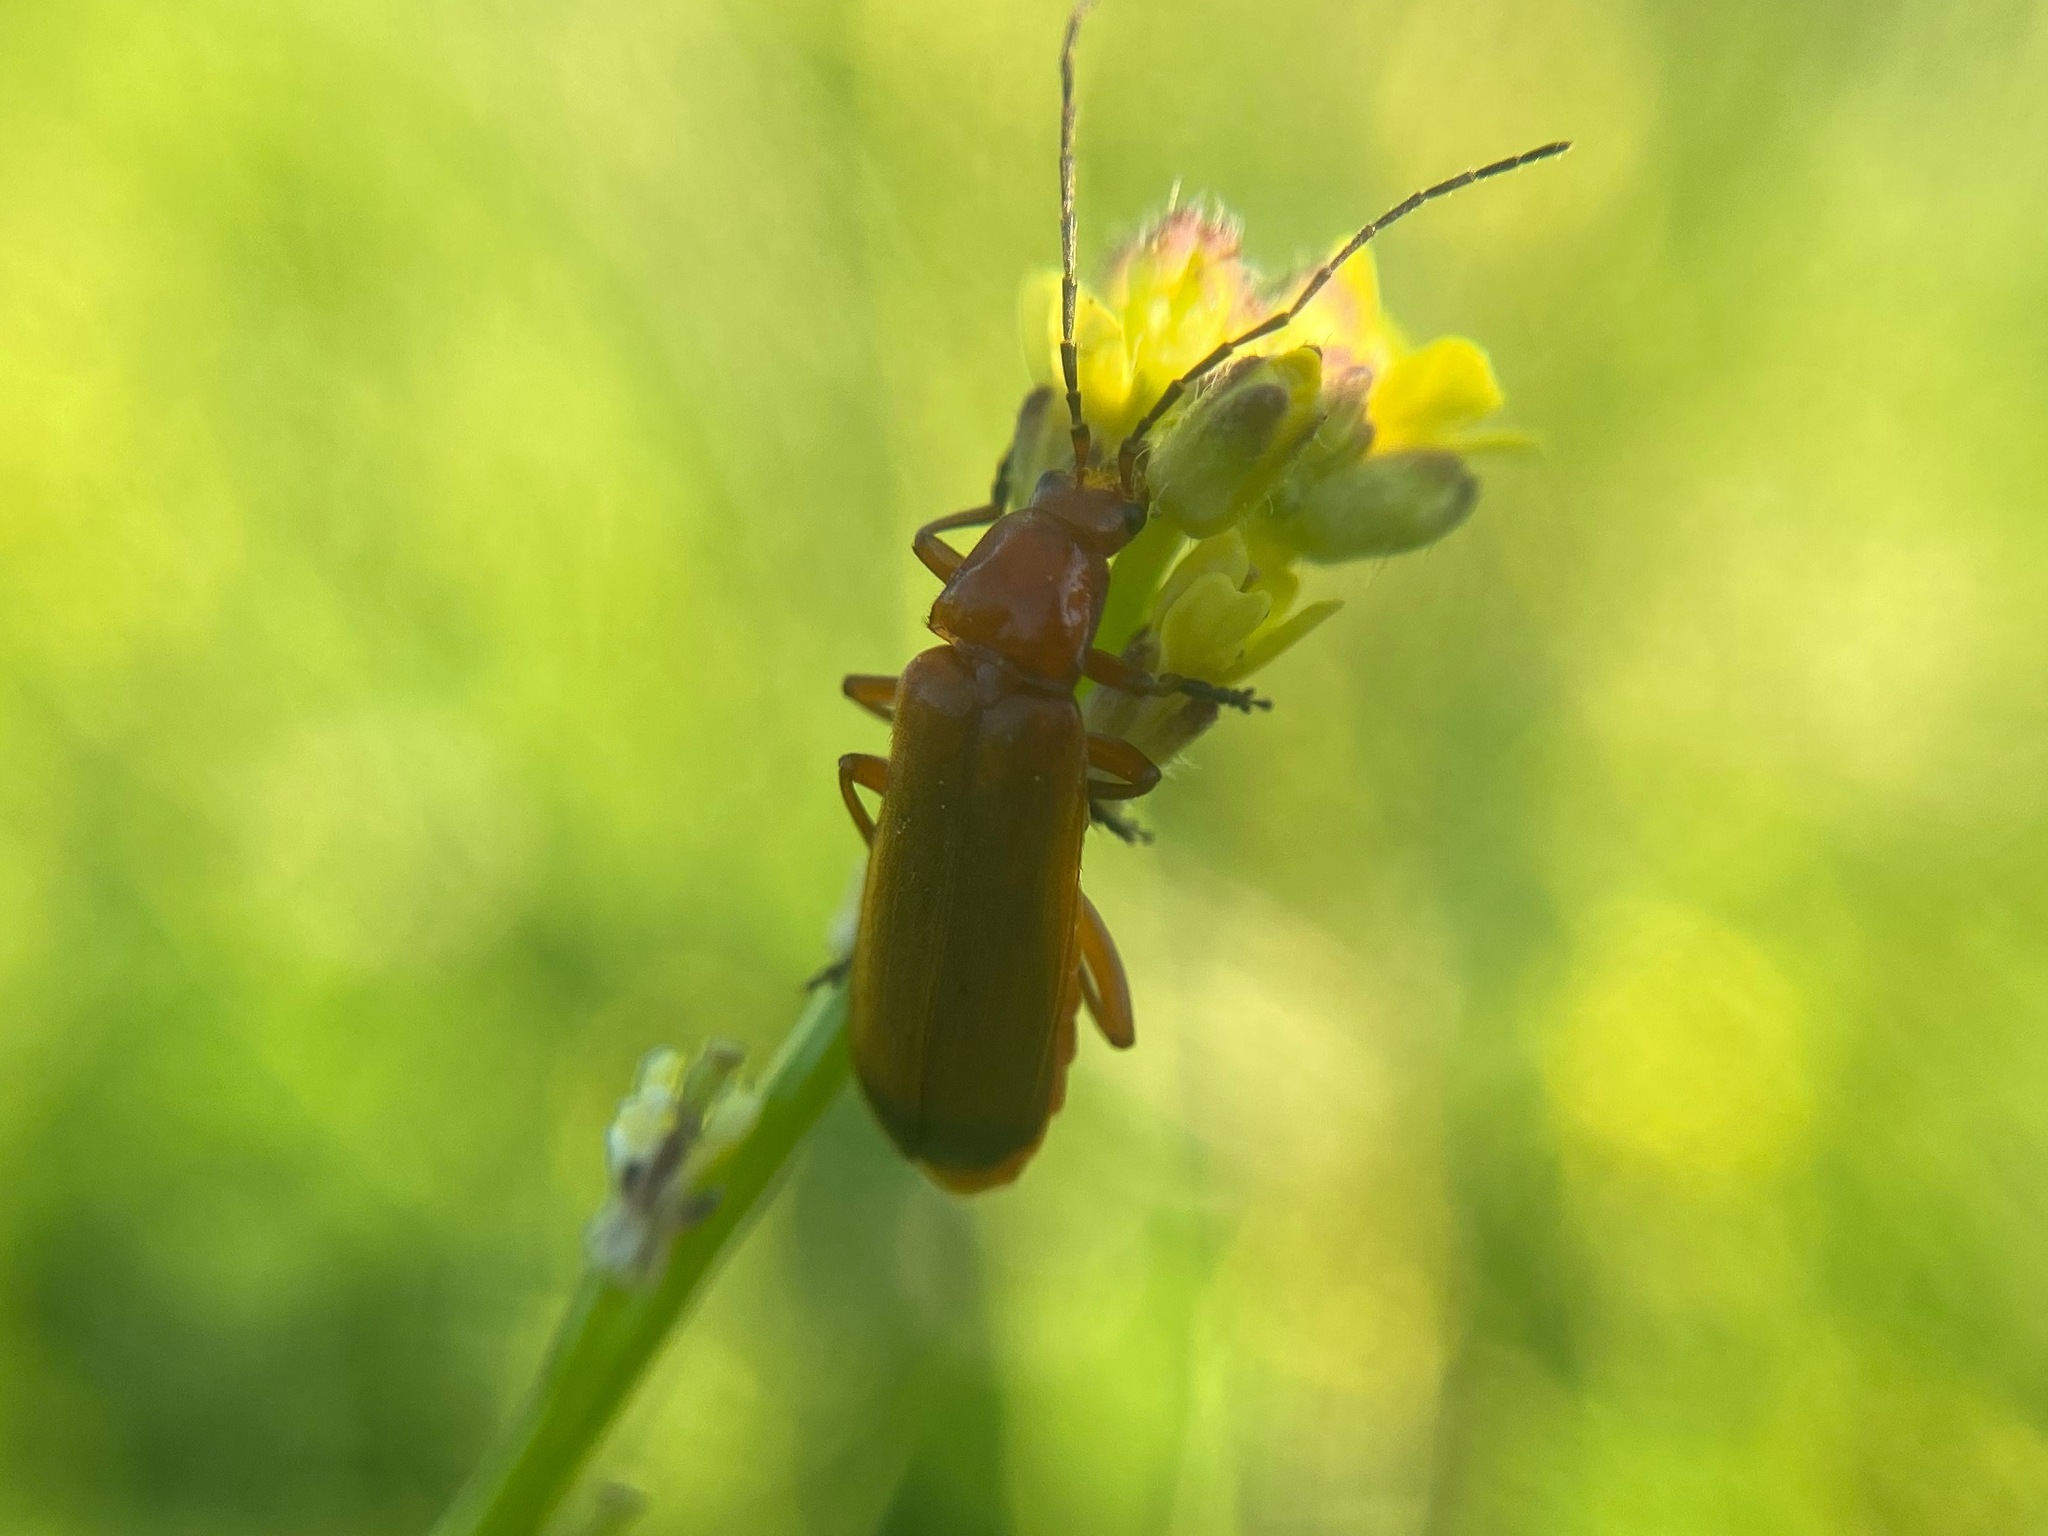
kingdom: Animalia
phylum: Arthropoda
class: Insecta
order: Coleoptera
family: Cantharidae
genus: Rhagonycha
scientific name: Rhagonycha fulva
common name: Common red soldier beetle
